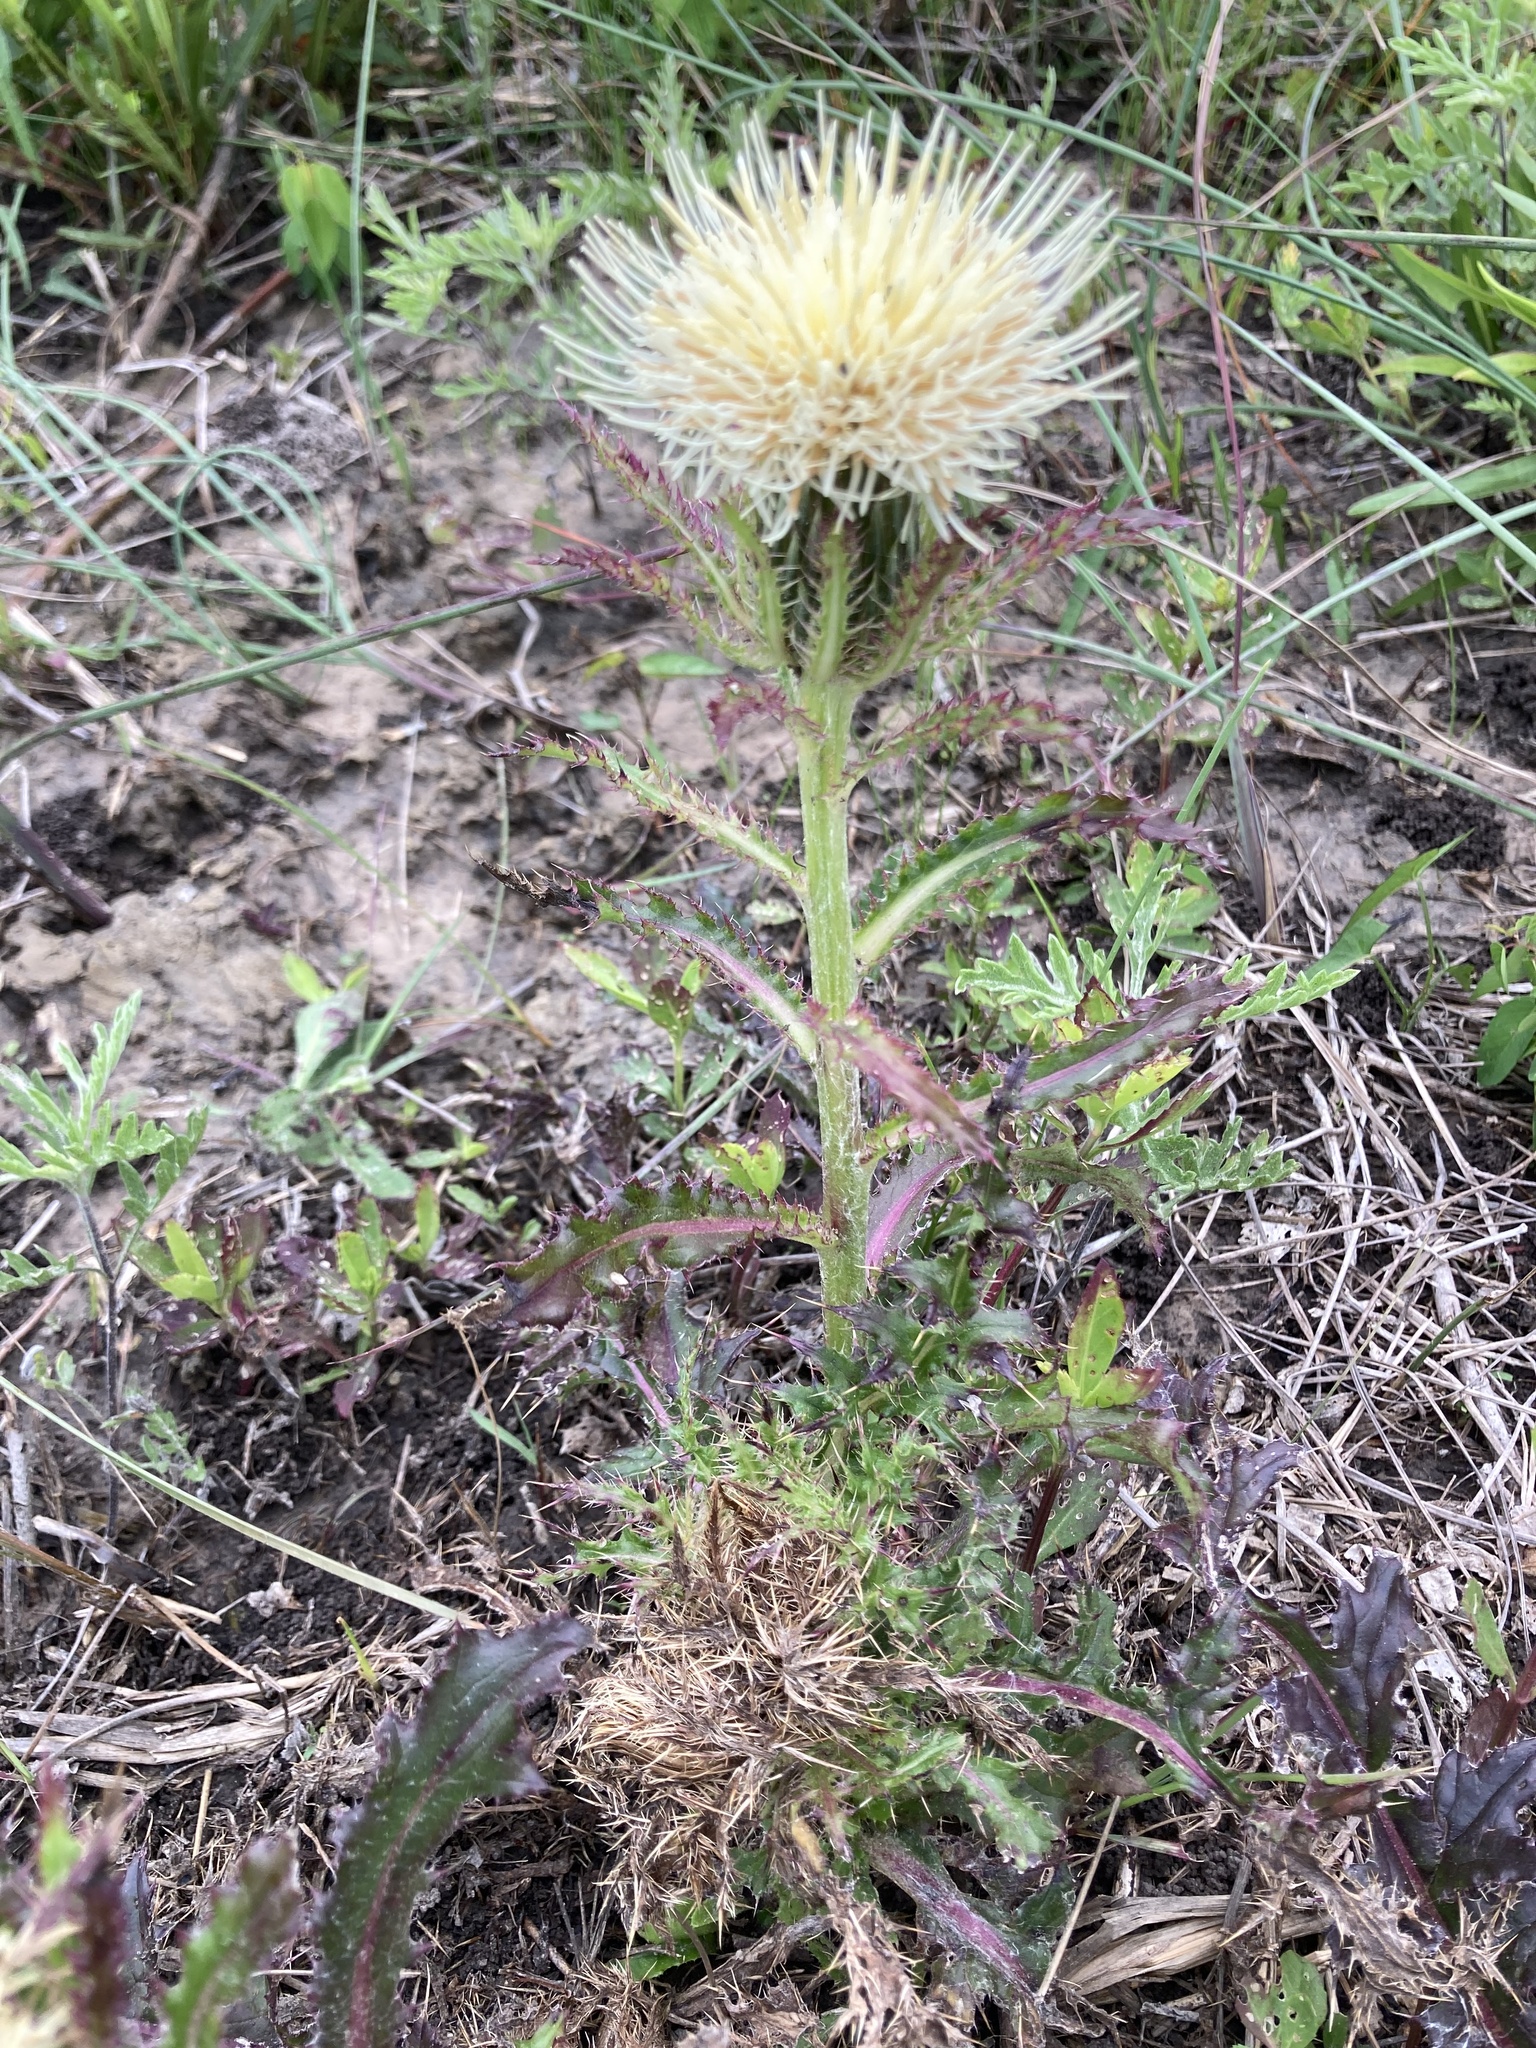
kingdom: Plantae
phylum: Tracheophyta
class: Magnoliopsida
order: Asterales
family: Asteraceae
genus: Cirsium
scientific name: Cirsium horridulum
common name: Bristly thistle
